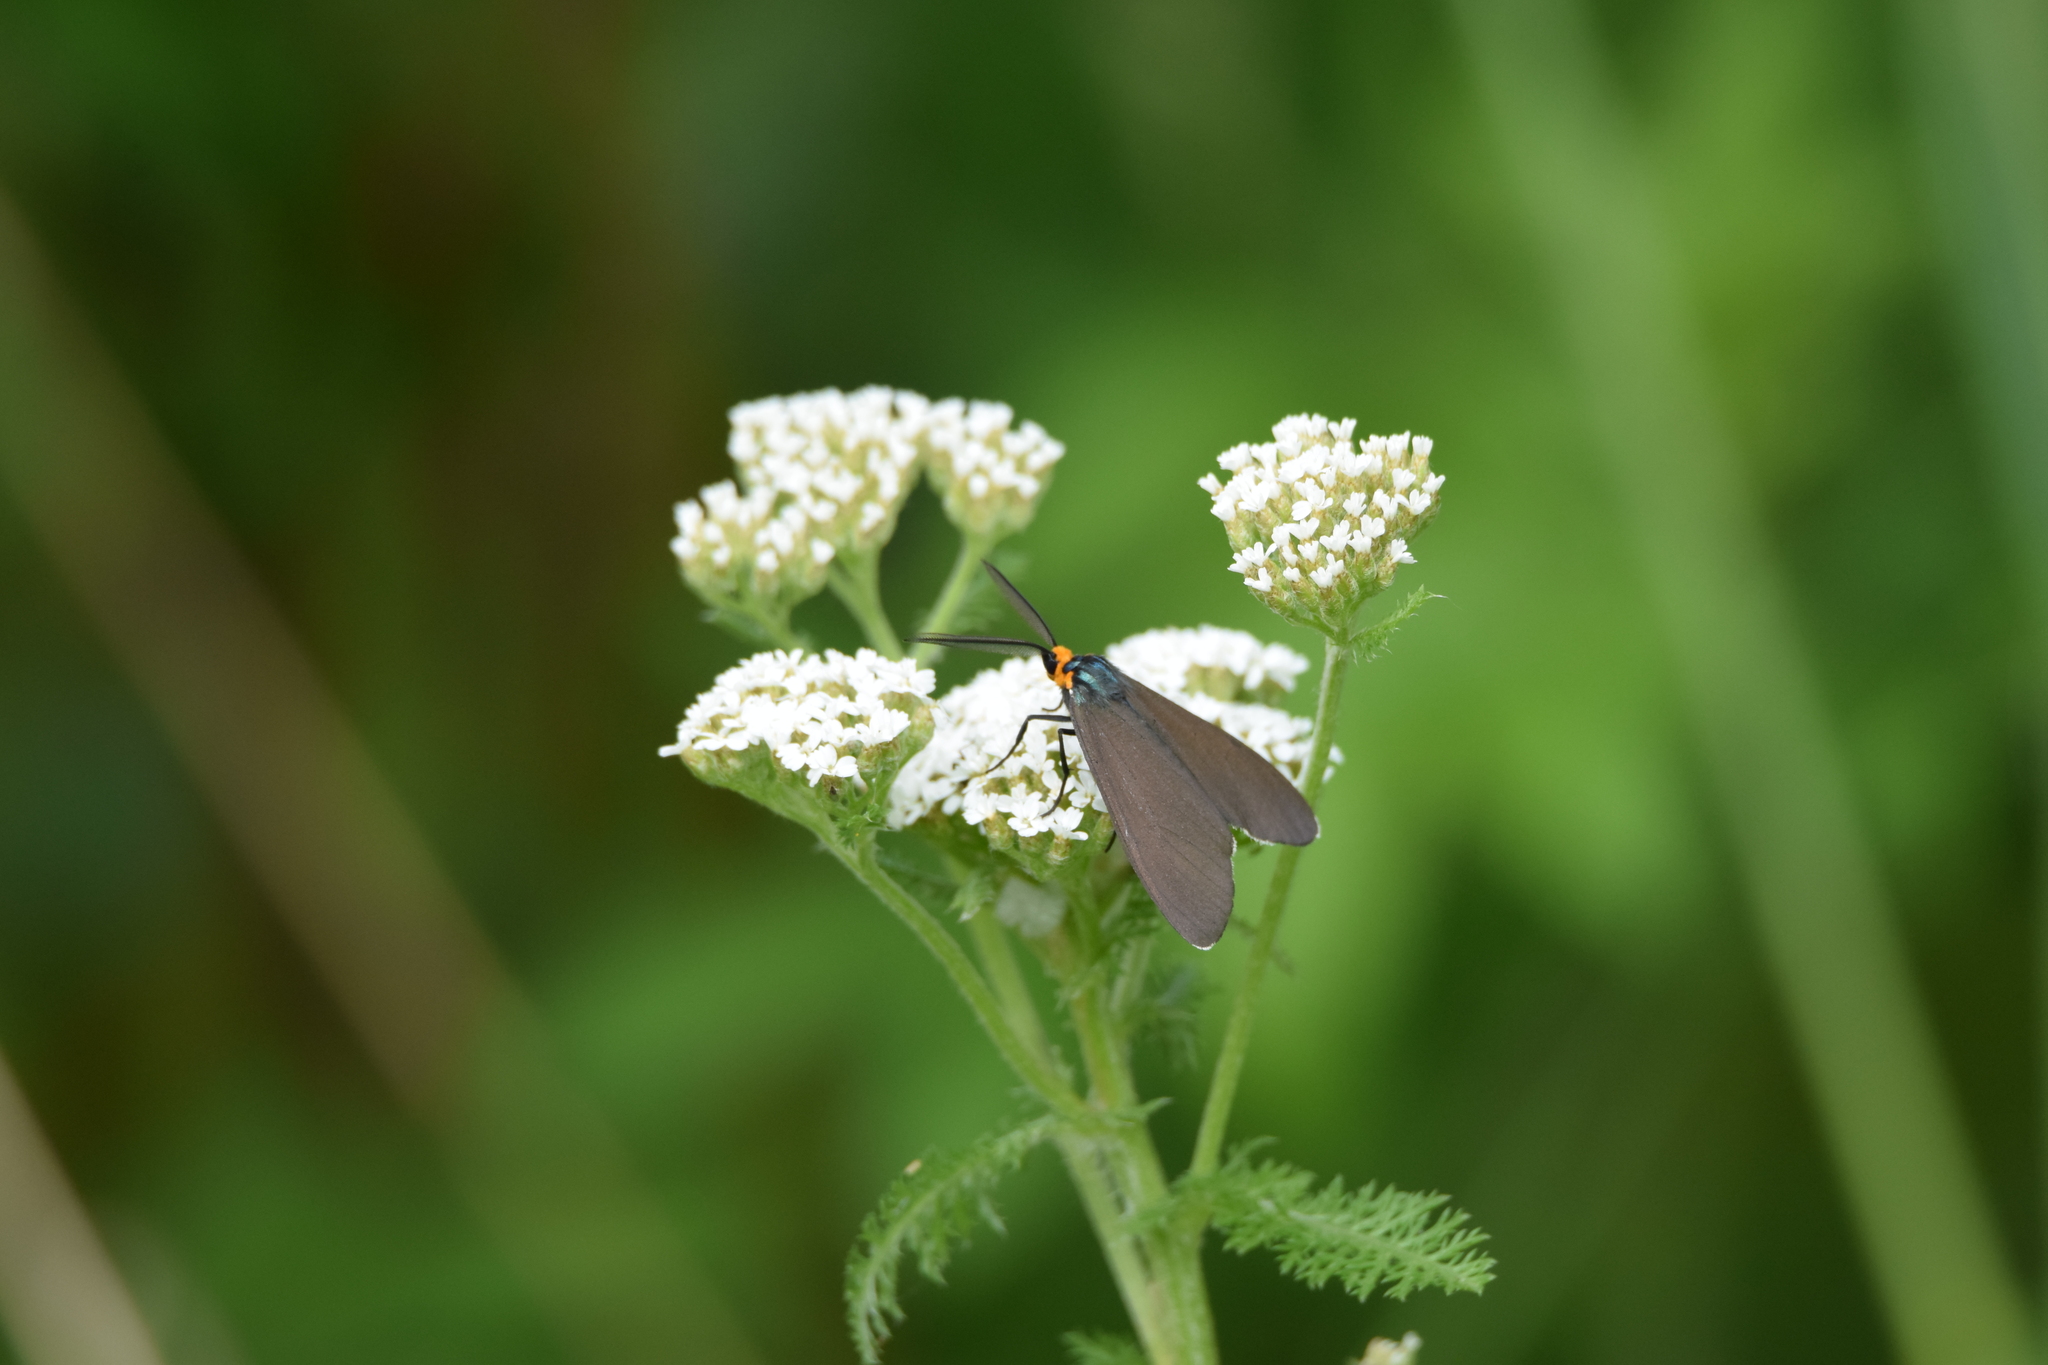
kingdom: Animalia
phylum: Arthropoda
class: Insecta
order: Lepidoptera
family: Erebidae
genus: Ctenucha
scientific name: Ctenucha virginica
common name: Virginia ctenucha moth
